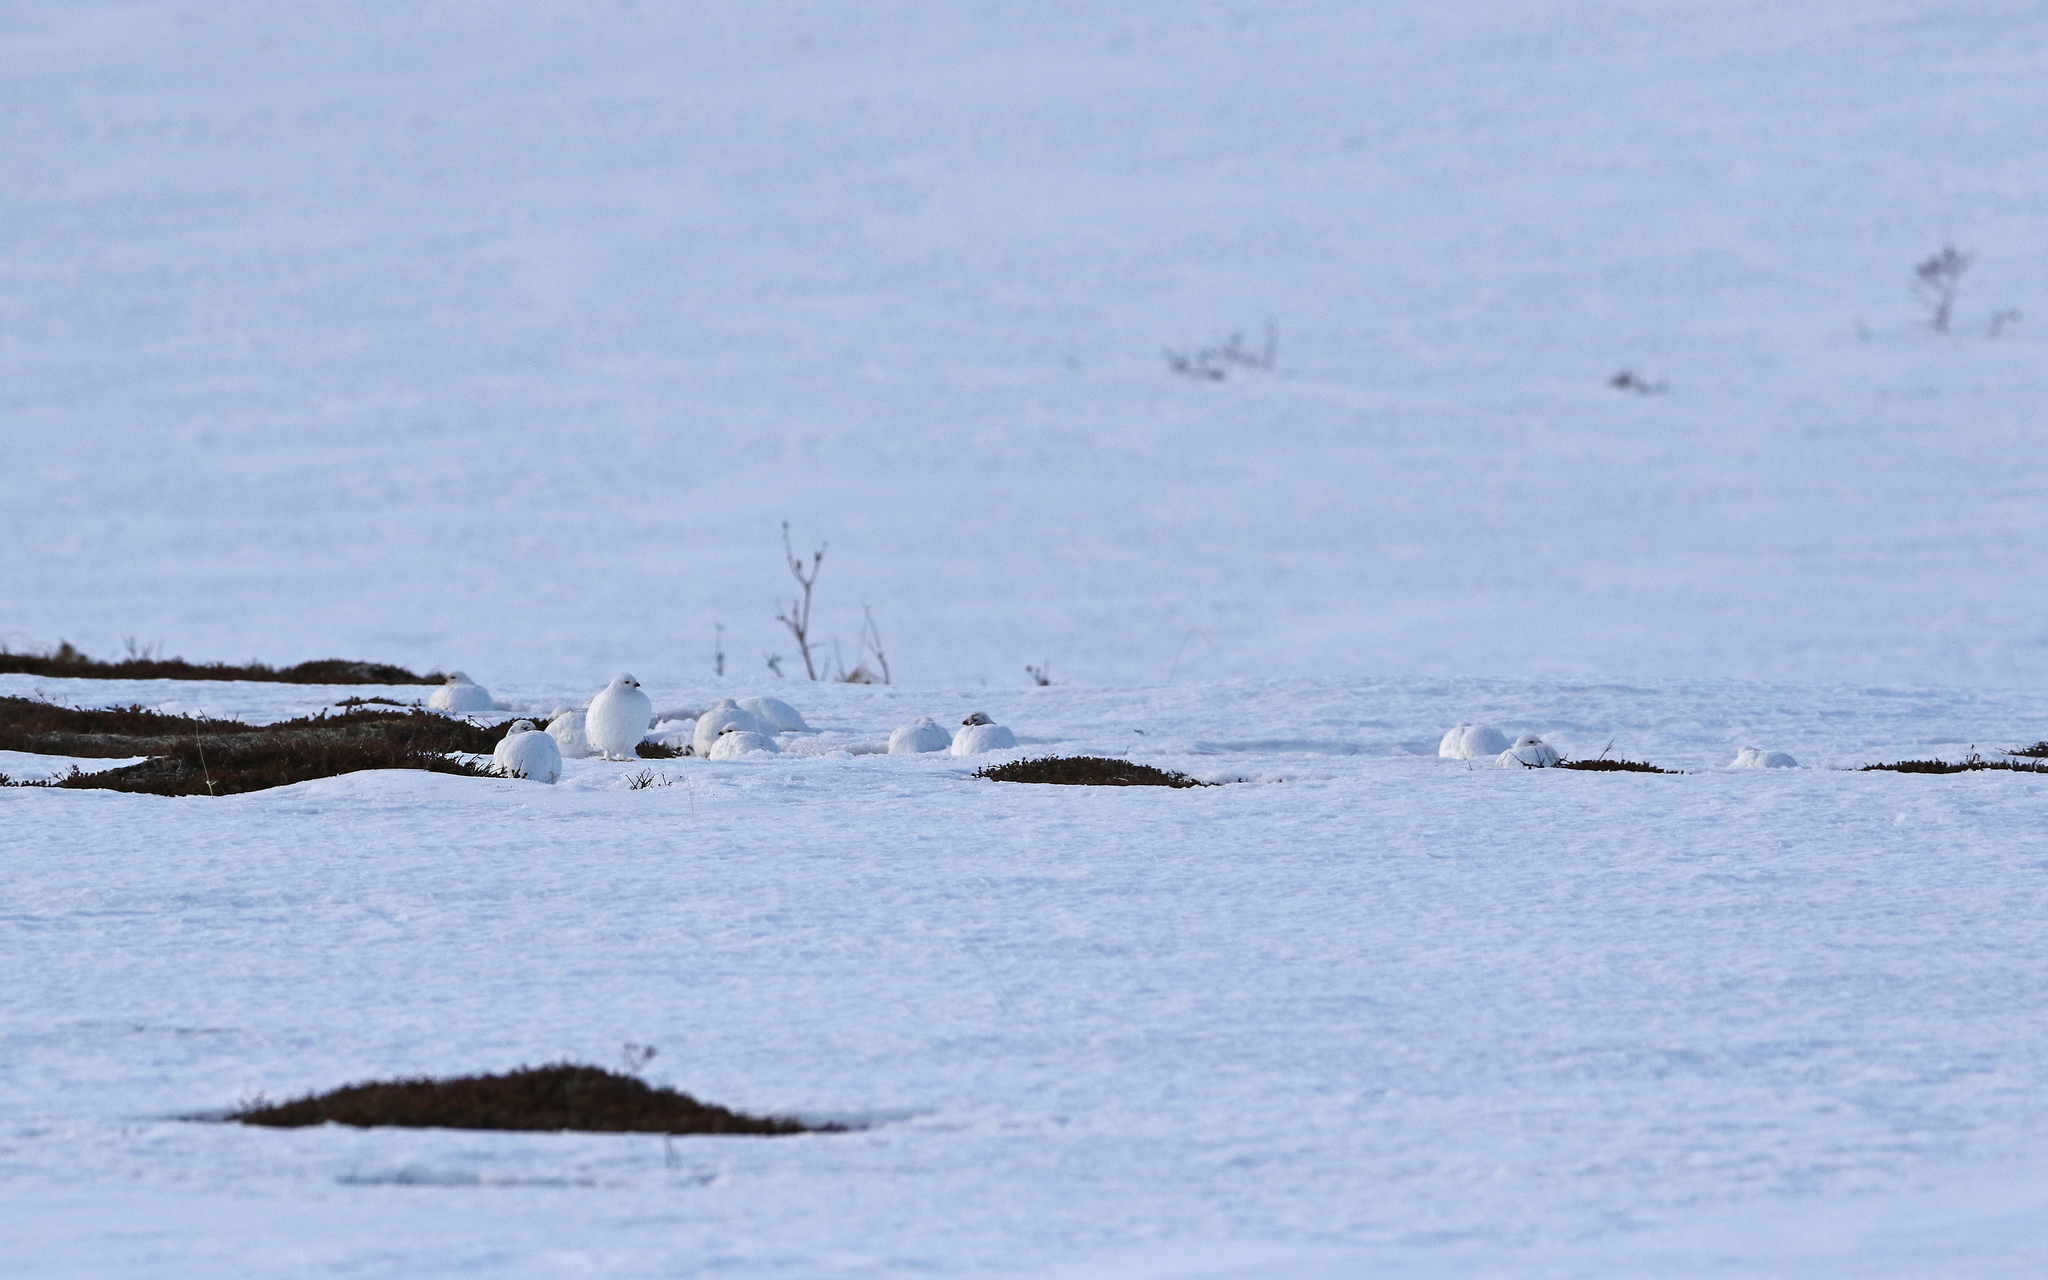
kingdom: Animalia
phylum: Chordata
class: Aves
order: Galliformes
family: Phasianidae
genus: Lagopus
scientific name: Lagopus lagopus
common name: Willow ptarmigan
